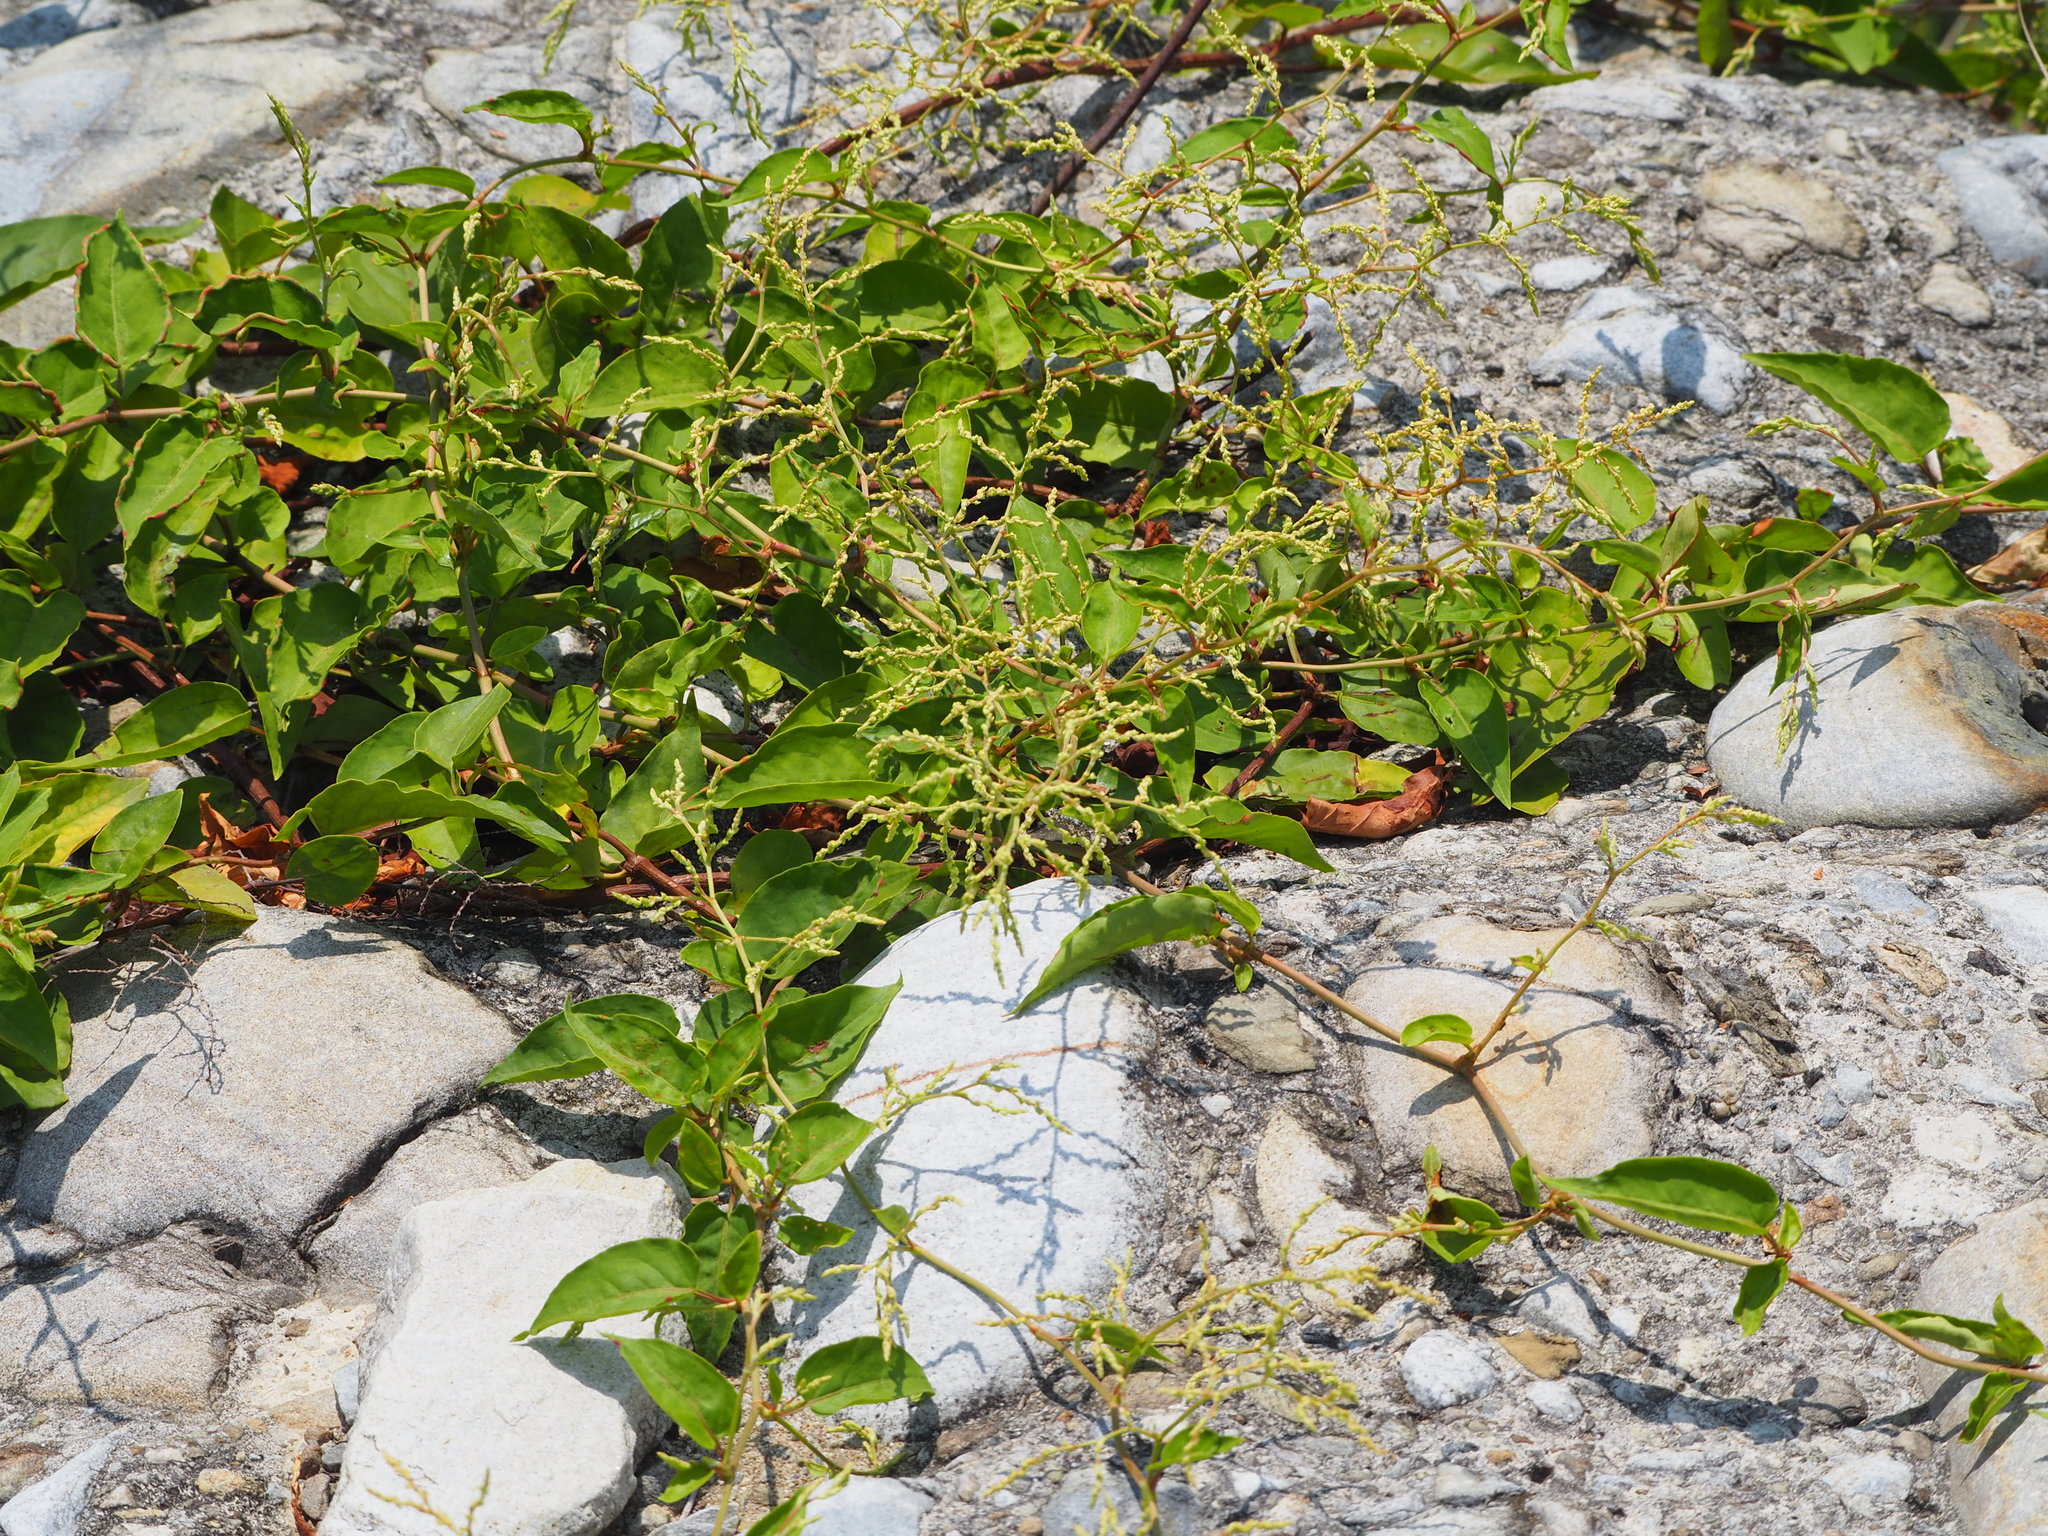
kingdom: Plantae
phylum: Tracheophyta
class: Magnoliopsida
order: Caryophyllales
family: Polygonaceae
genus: Reynoutria
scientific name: Reynoutria multiflora
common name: Chinese fleeceflower
